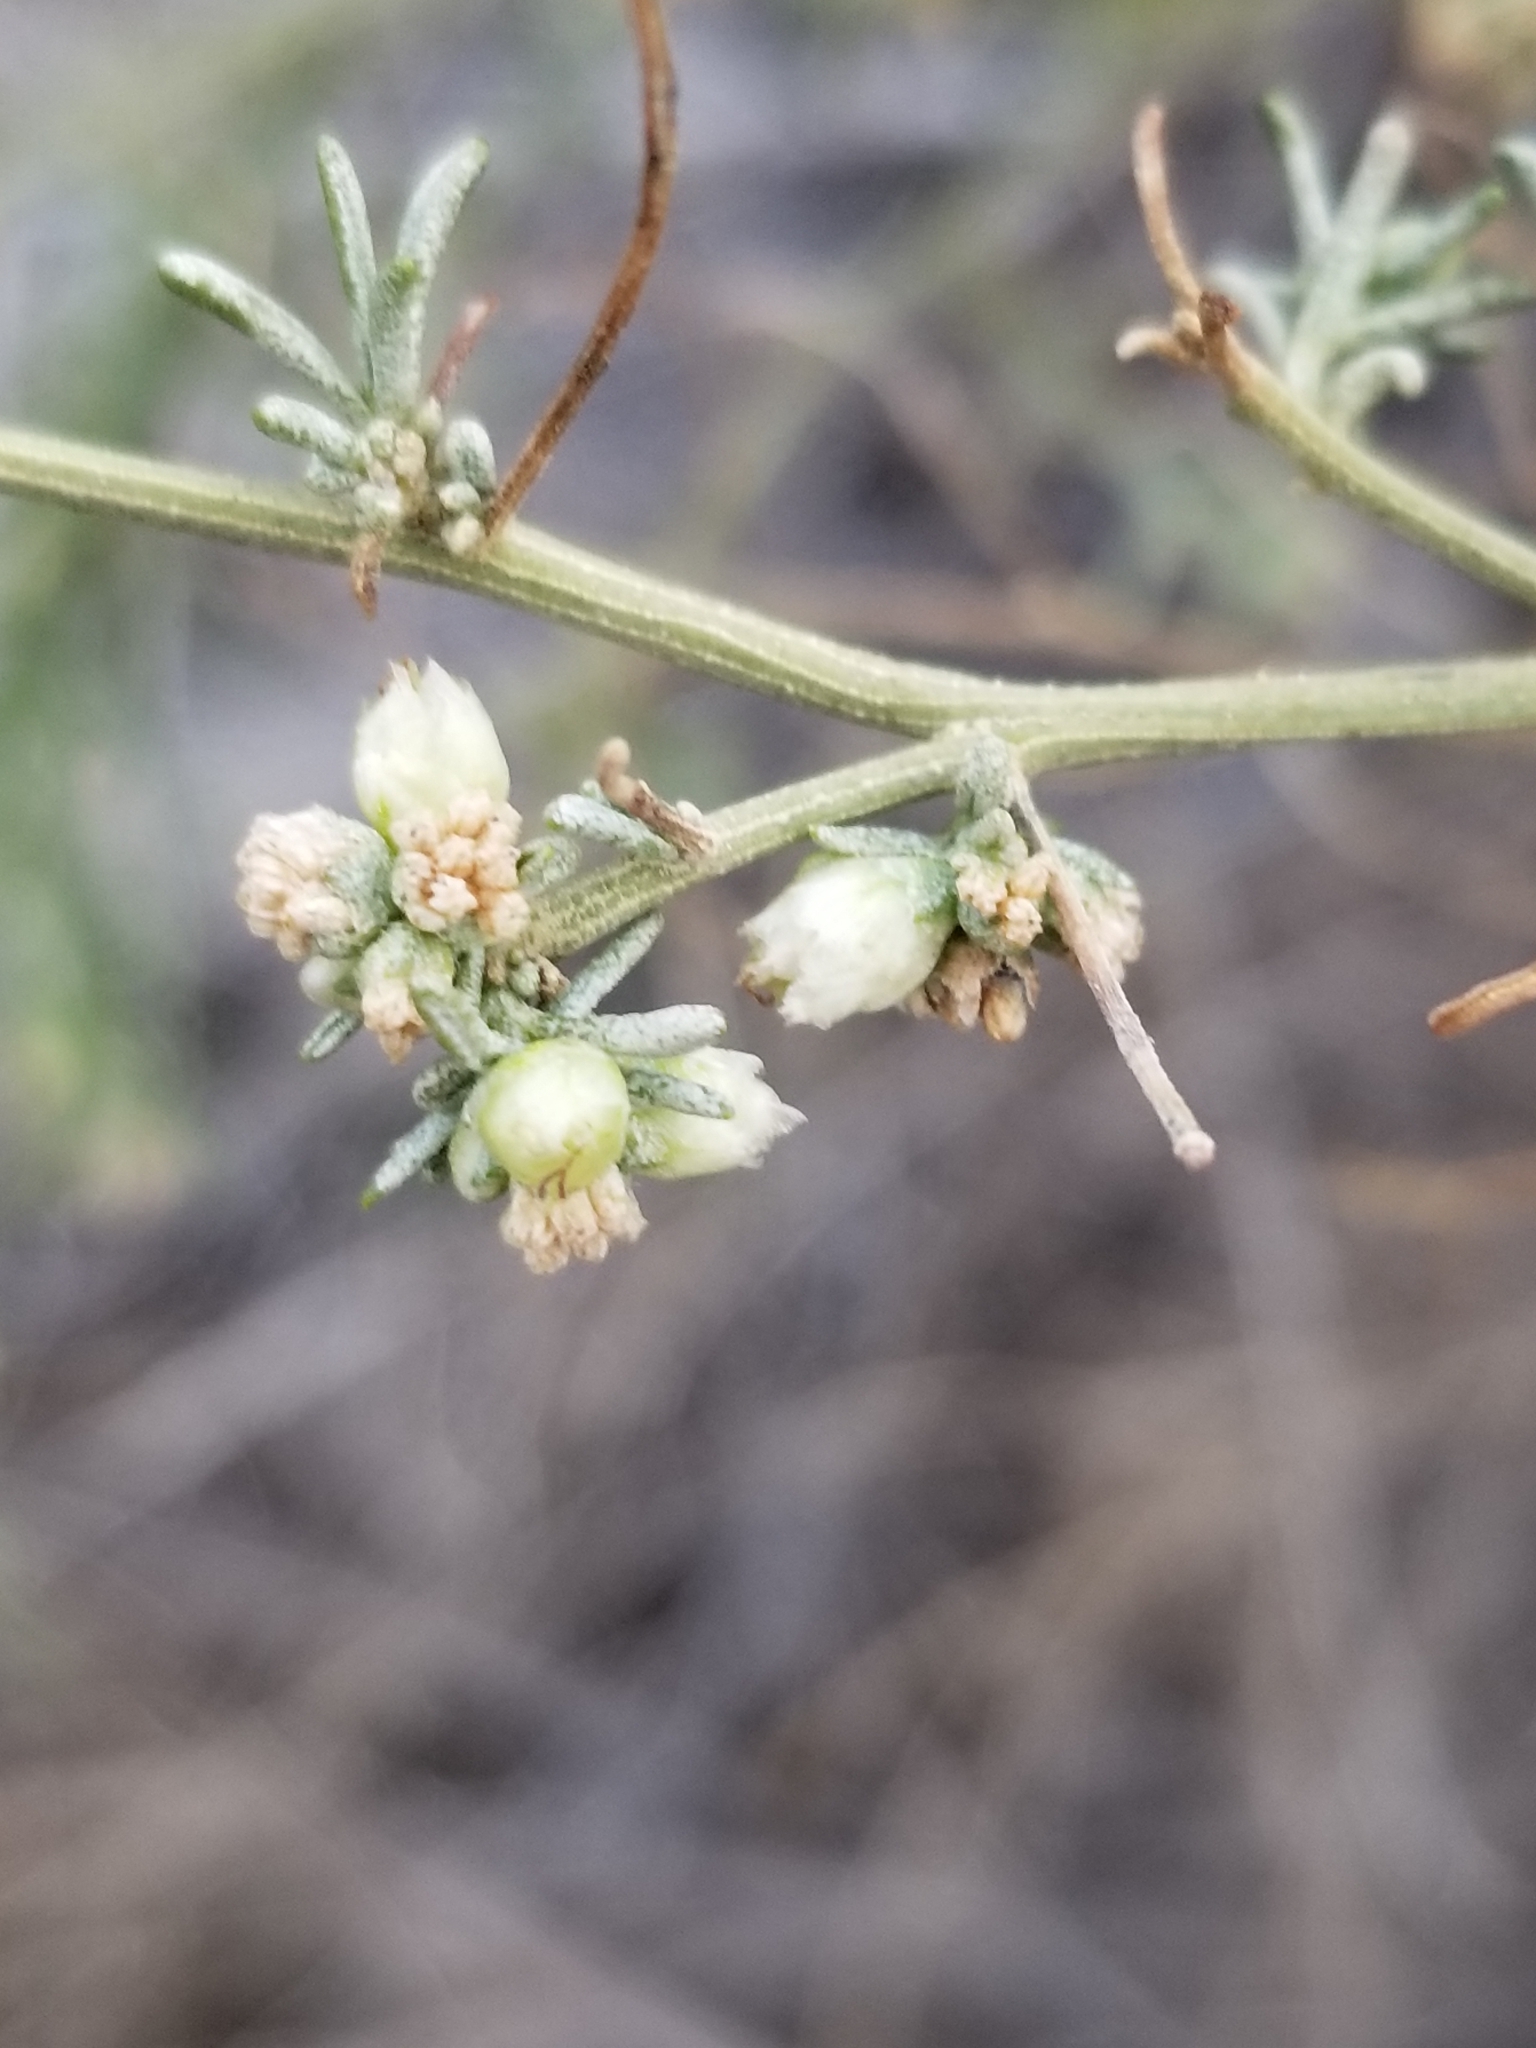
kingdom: Plantae
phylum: Tracheophyta
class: Magnoliopsida
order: Asterales
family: Asteraceae
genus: Ambrosia
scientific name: Ambrosia salsola
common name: Burrobrush
